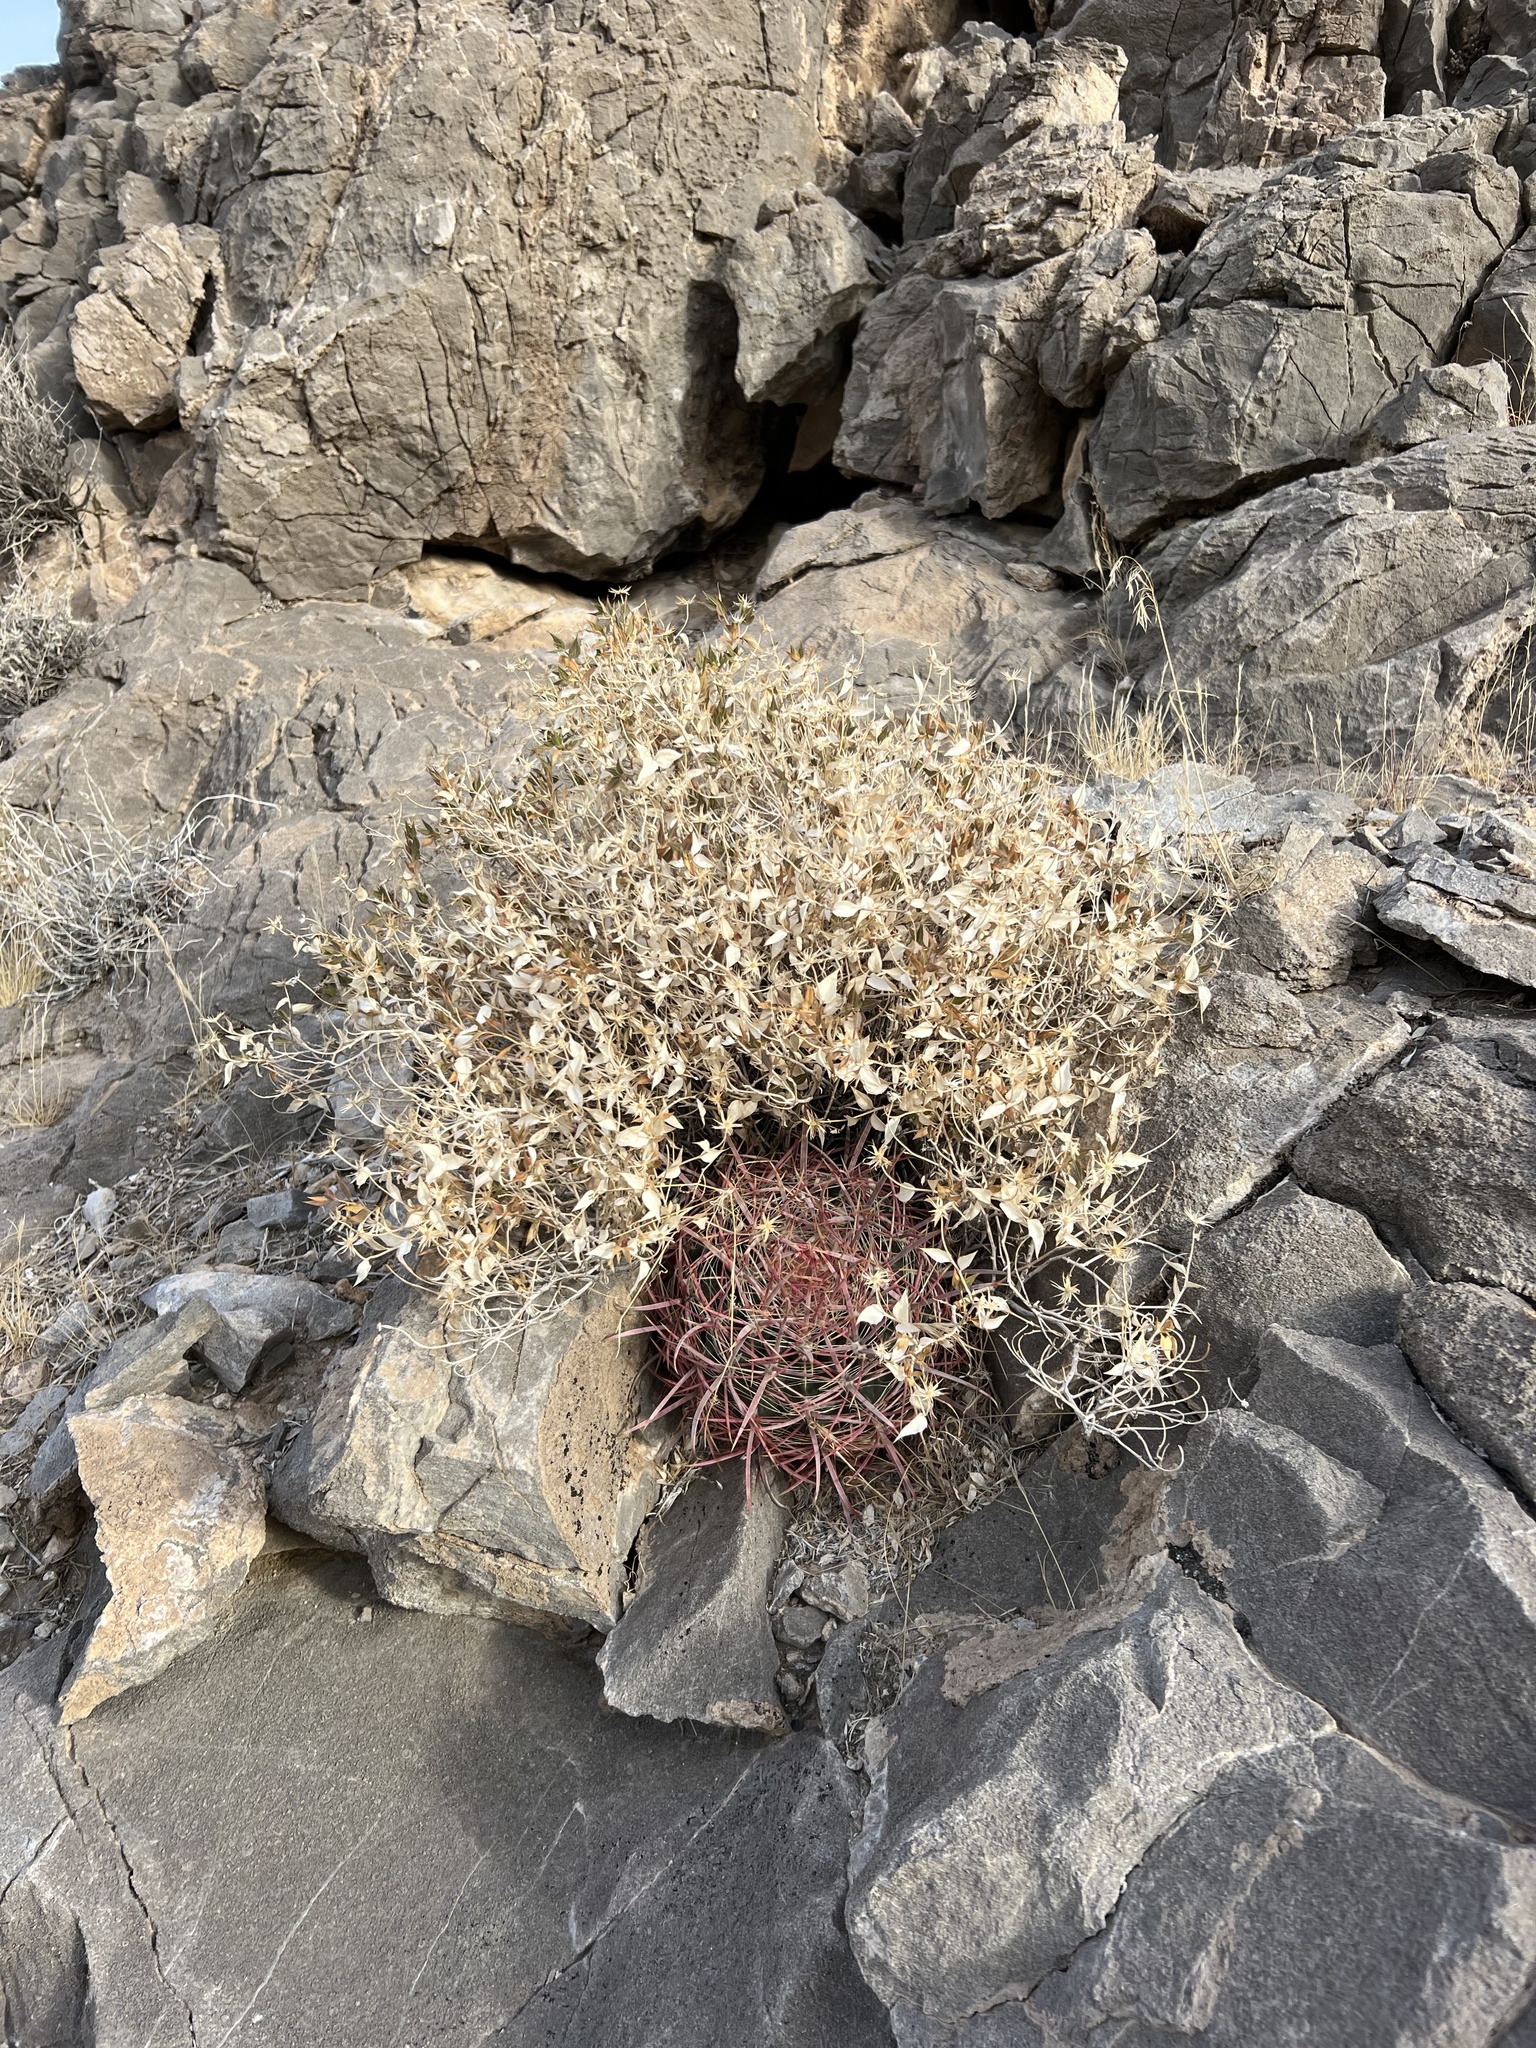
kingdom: Plantae
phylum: Tracheophyta
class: Magnoliopsida
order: Asterales
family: Asteraceae
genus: Brickellia
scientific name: Brickellia atractyloides
